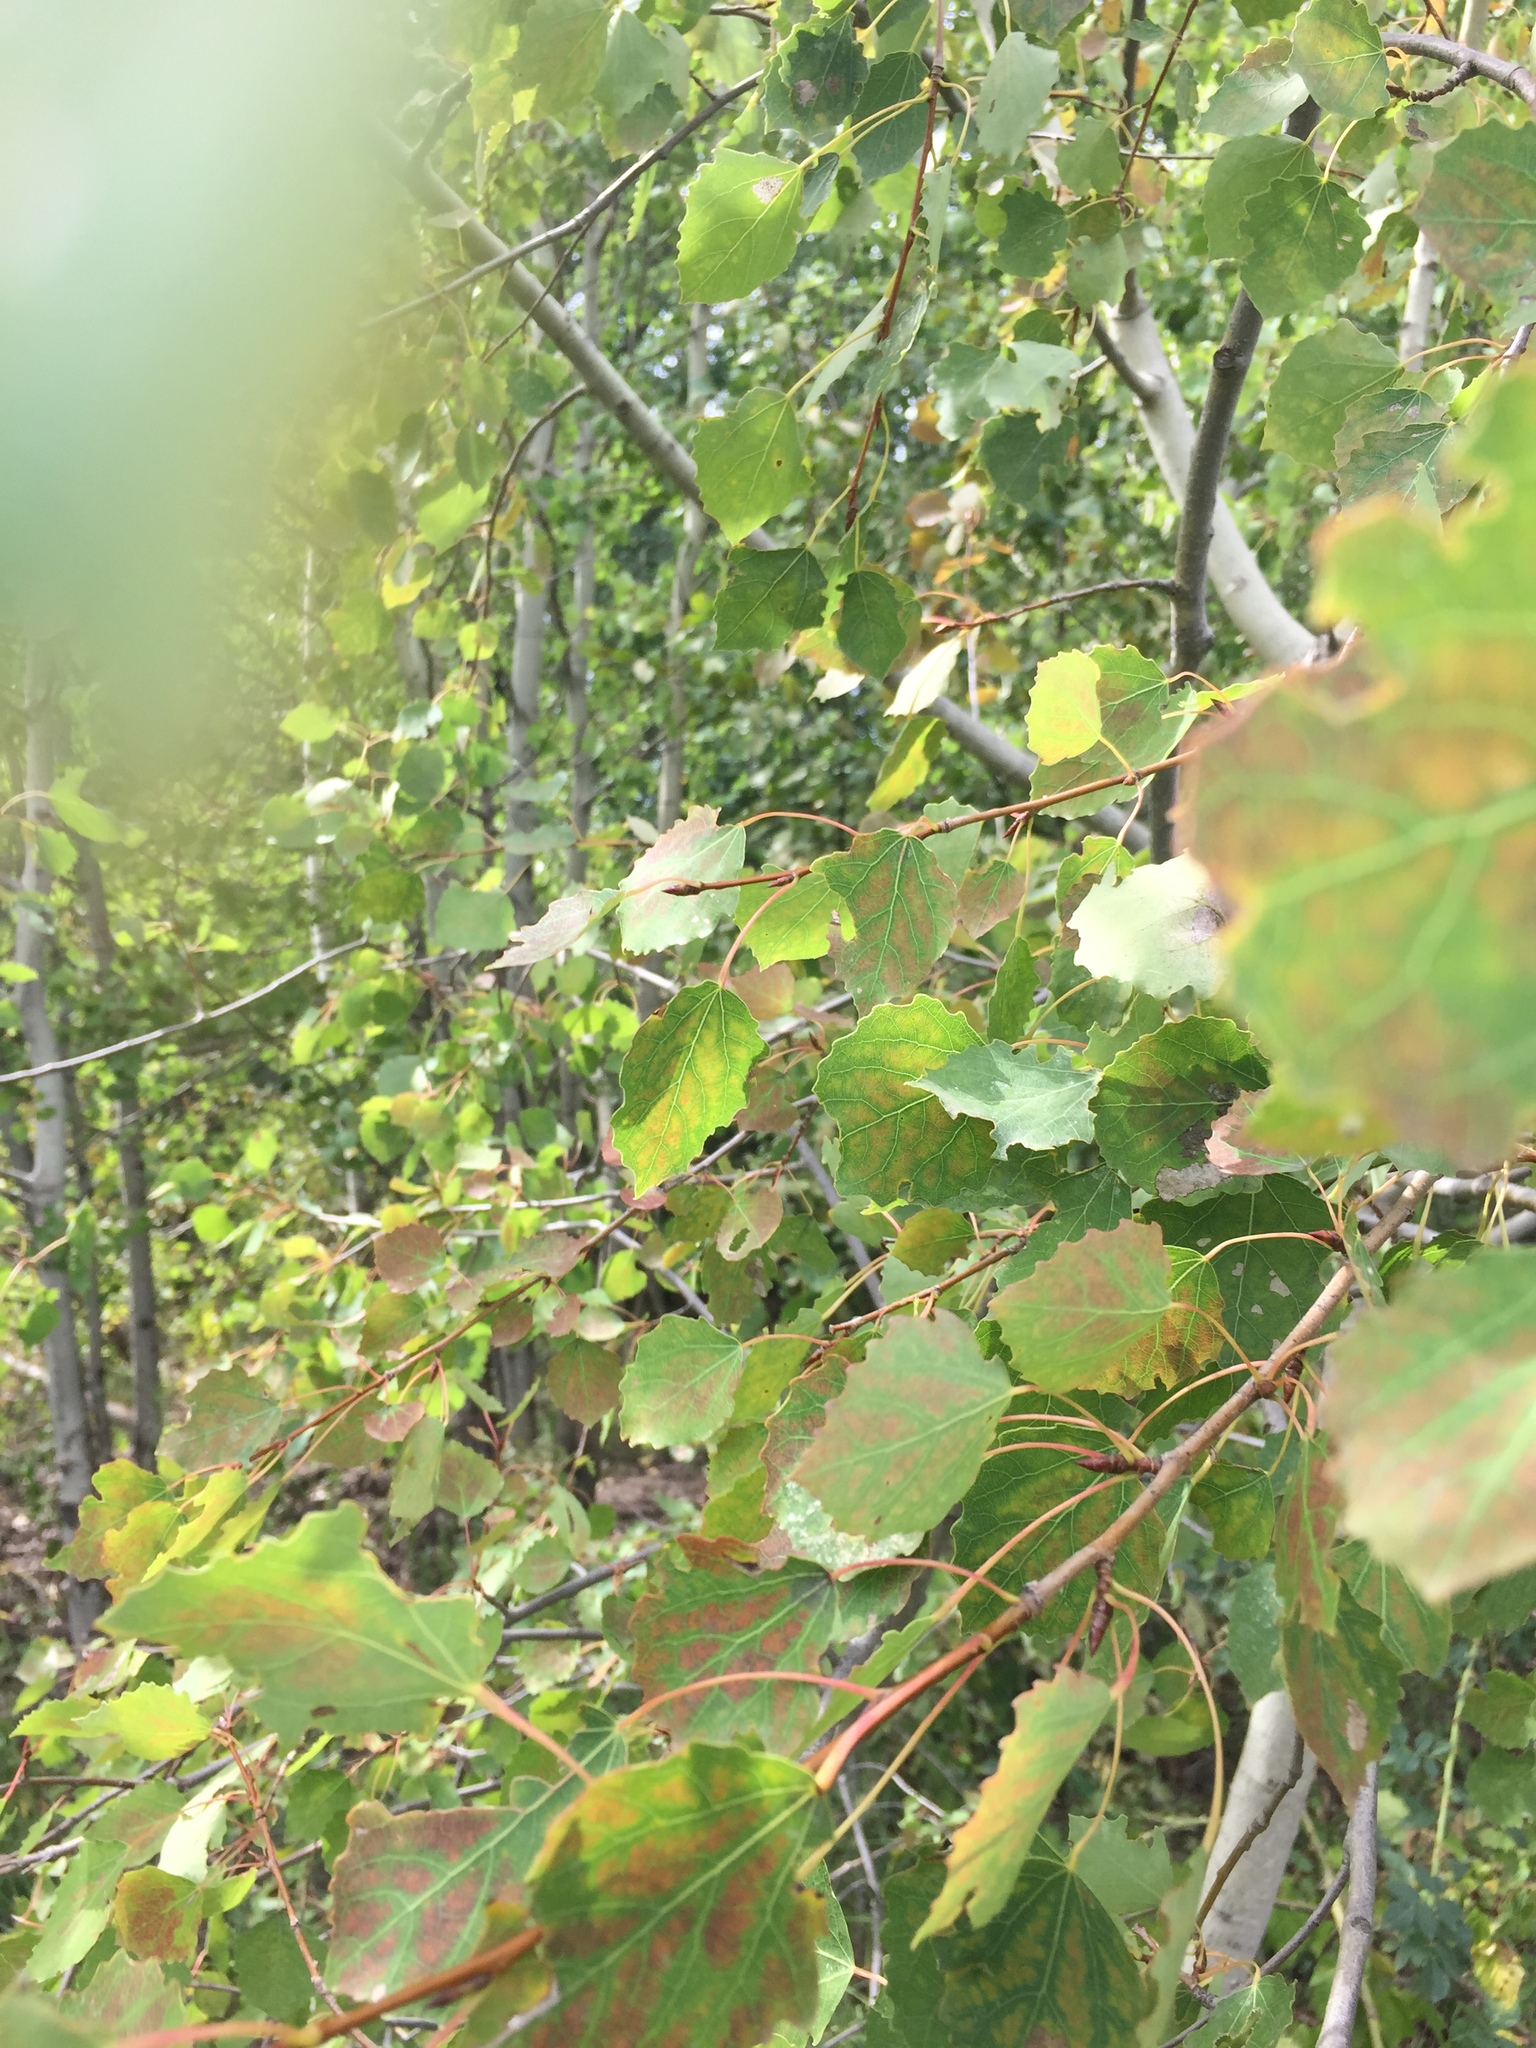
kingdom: Plantae
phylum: Tracheophyta
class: Magnoliopsida
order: Malpighiales
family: Salicaceae
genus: Populus
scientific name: Populus tremula
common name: European aspen
